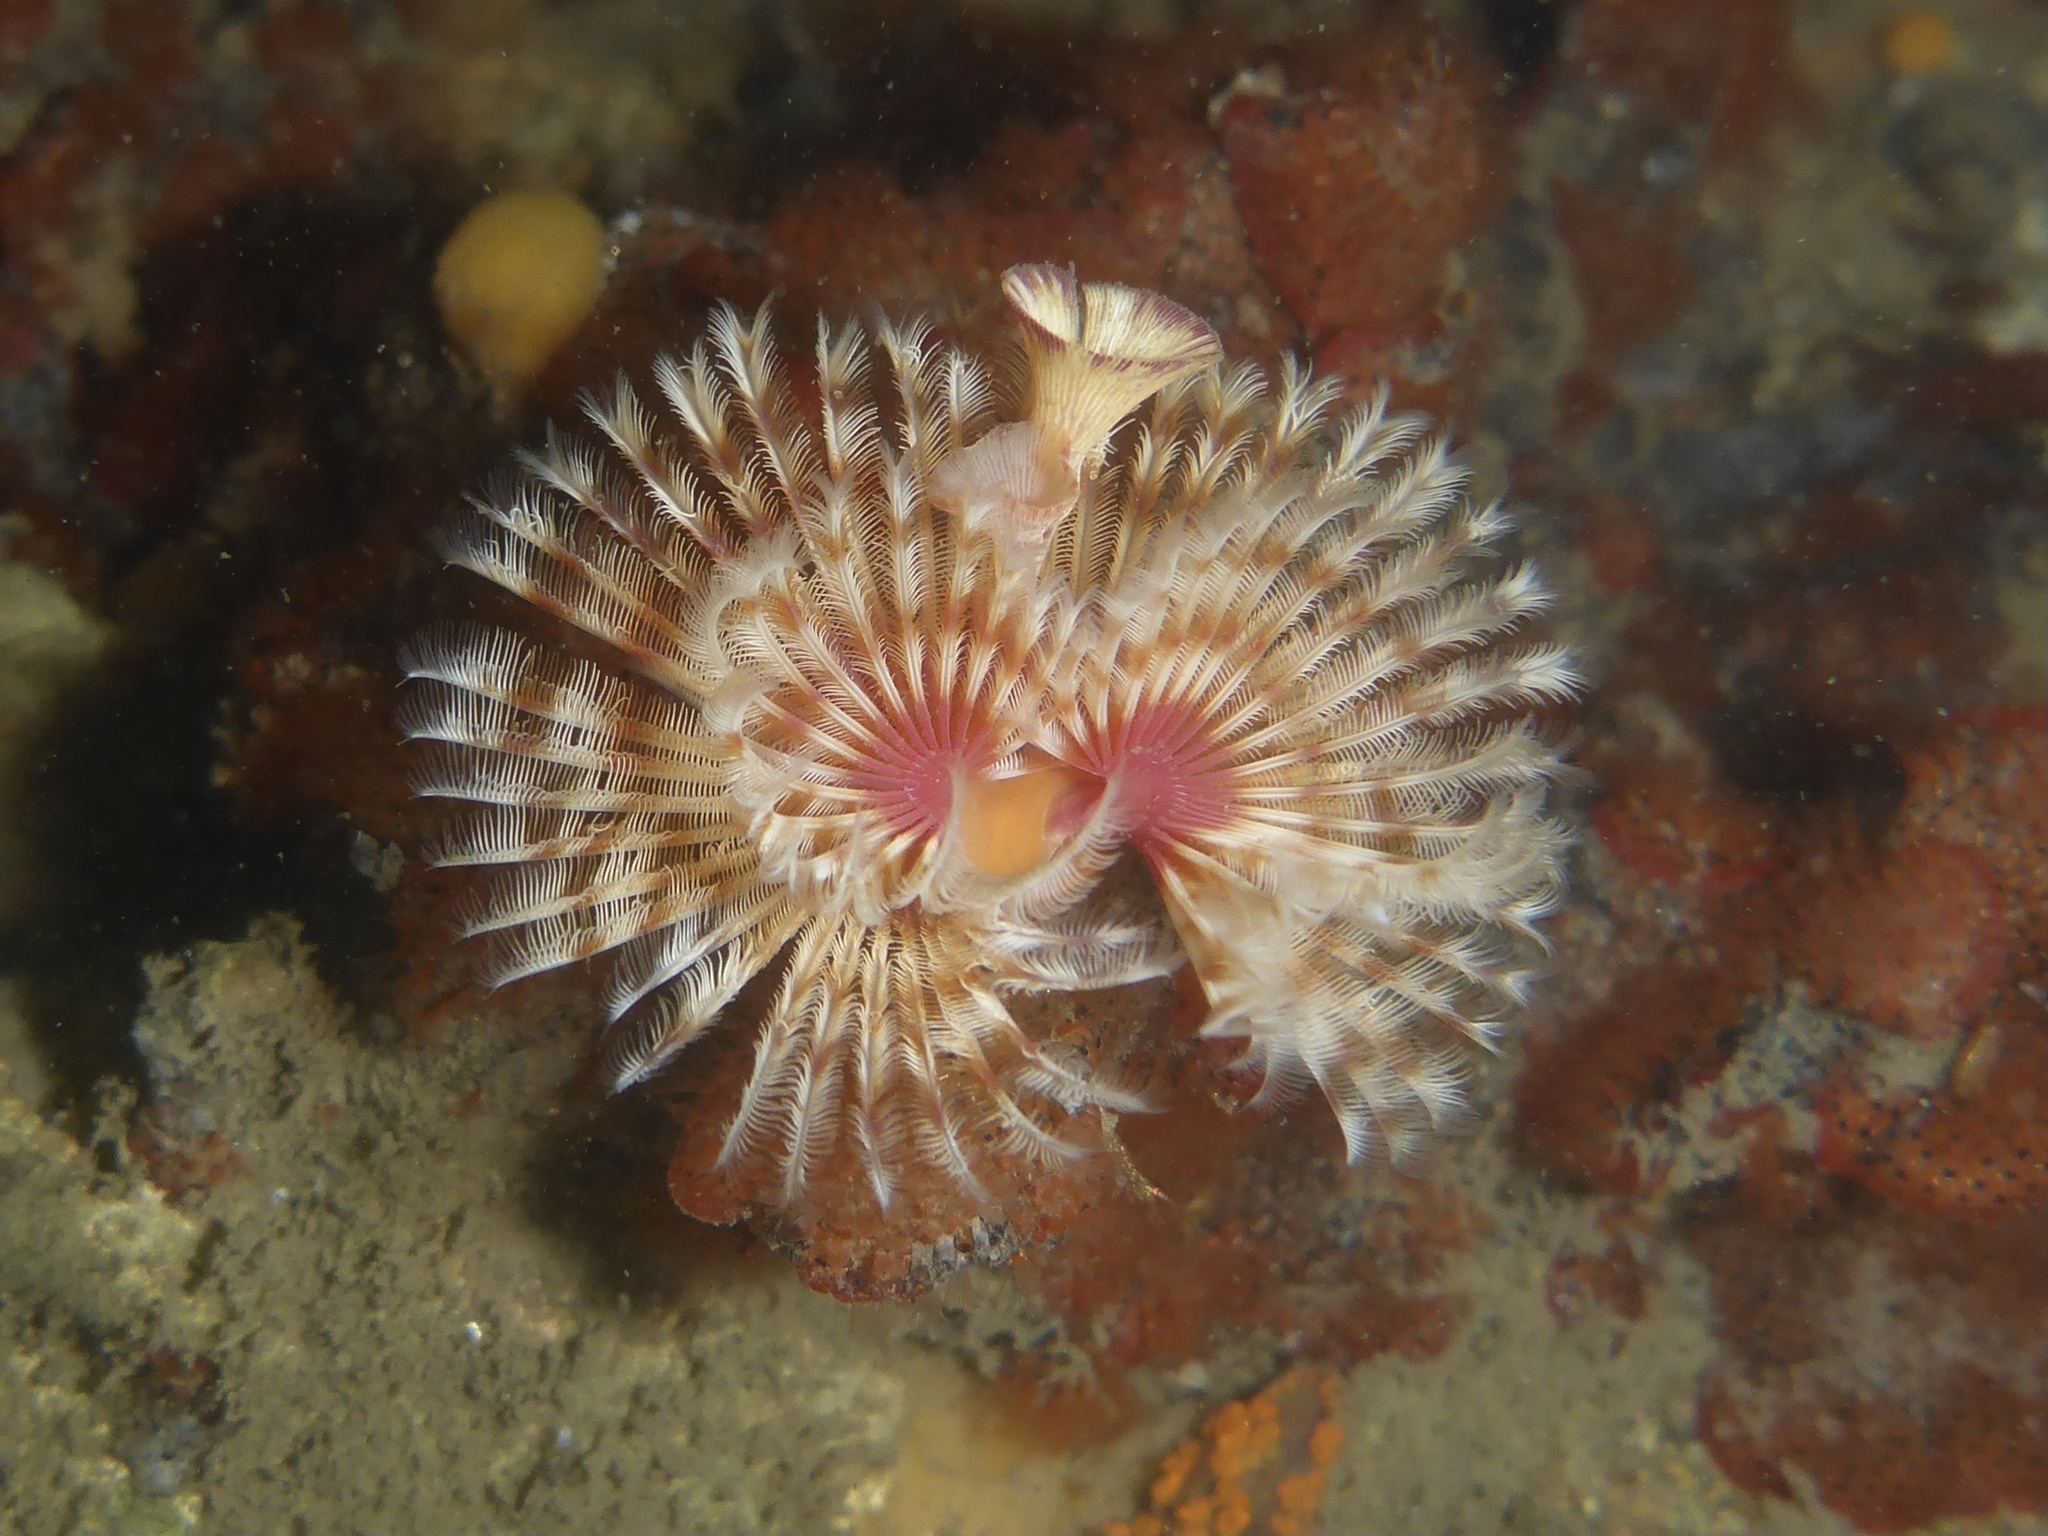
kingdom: Animalia
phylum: Annelida
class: Polychaeta
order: Sabellida
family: Serpulidae
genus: Serpula
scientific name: Serpula columbiana
